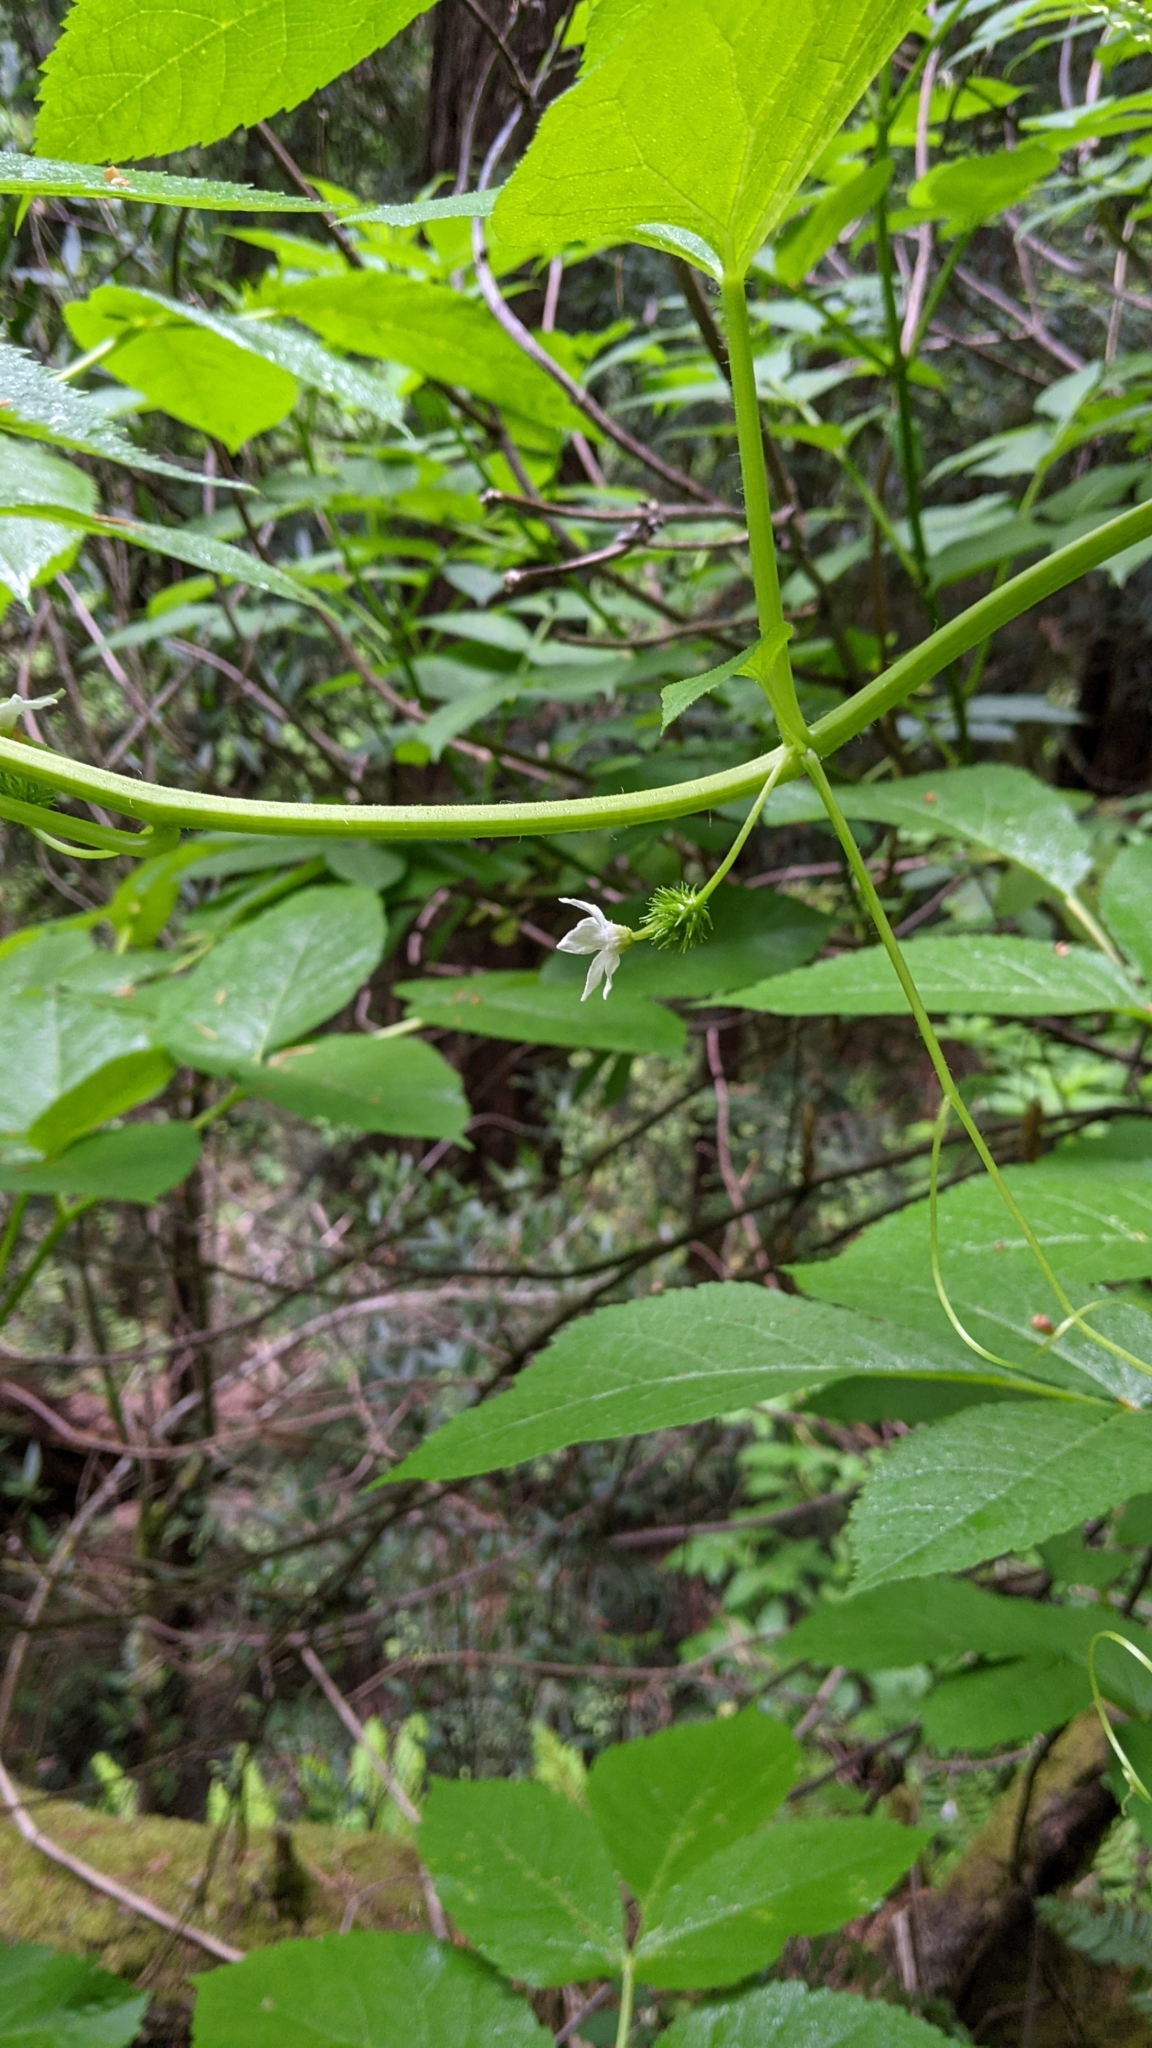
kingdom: Plantae
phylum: Tracheophyta
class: Magnoliopsida
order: Cucurbitales
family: Cucurbitaceae
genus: Marah
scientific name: Marah oregana
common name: Coastal manroot
